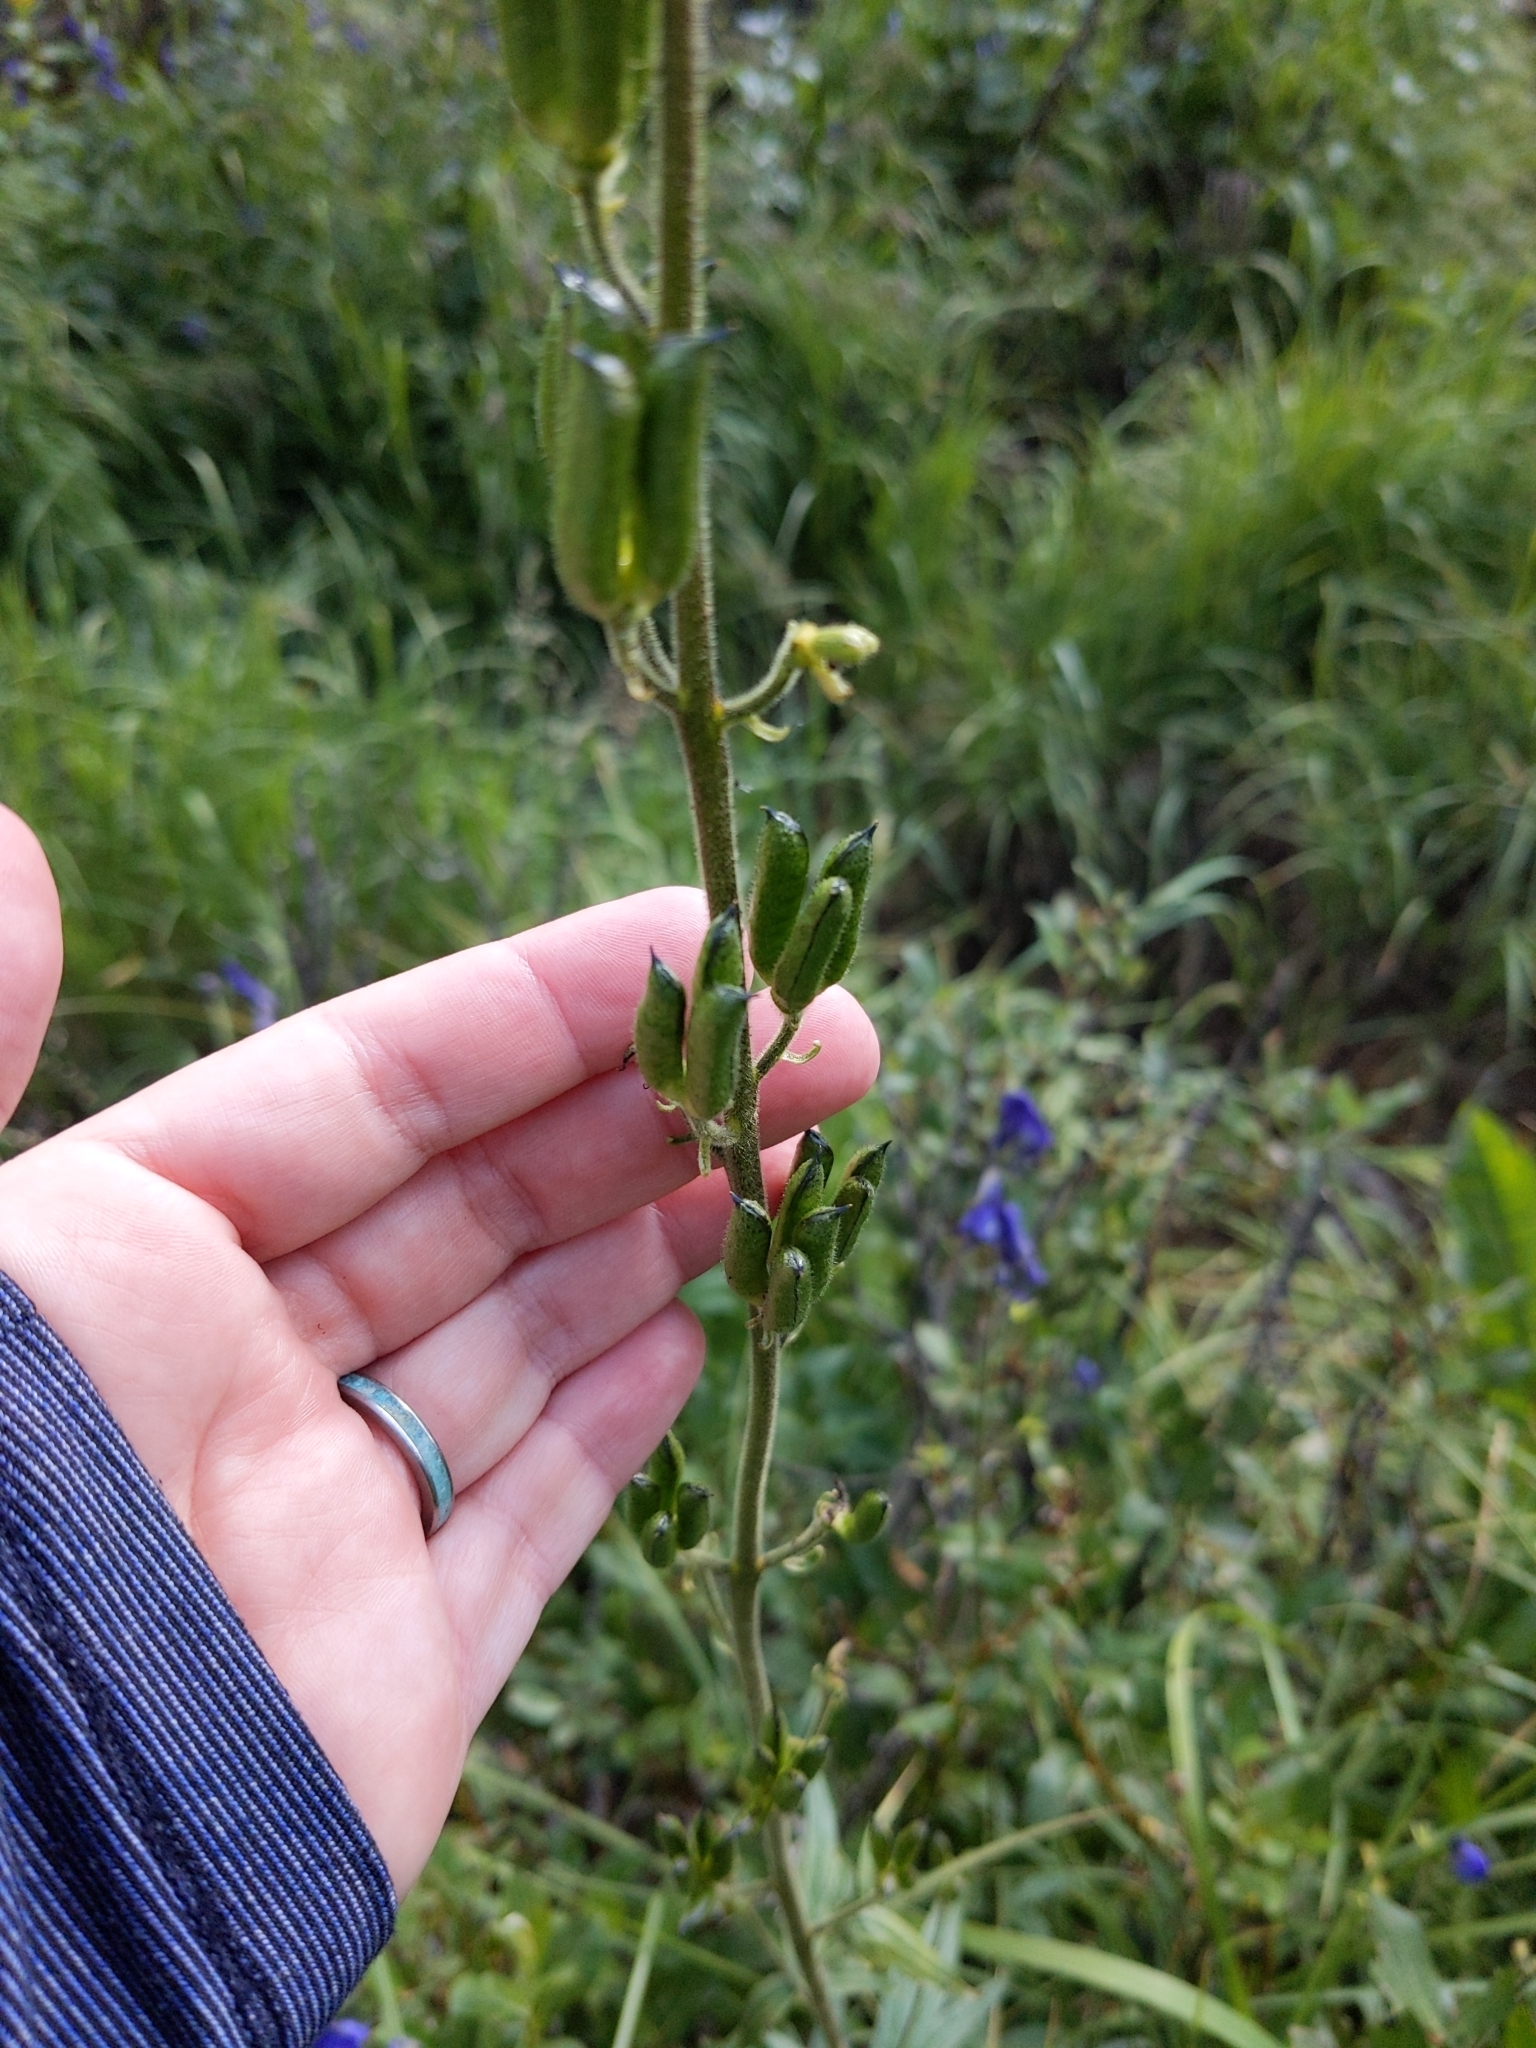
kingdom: Plantae
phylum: Tracheophyta
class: Magnoliopsida
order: Ranunculales
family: Ranunculaceae
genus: Aconitum
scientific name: Aconitum columbianum
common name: Columbia aconite
